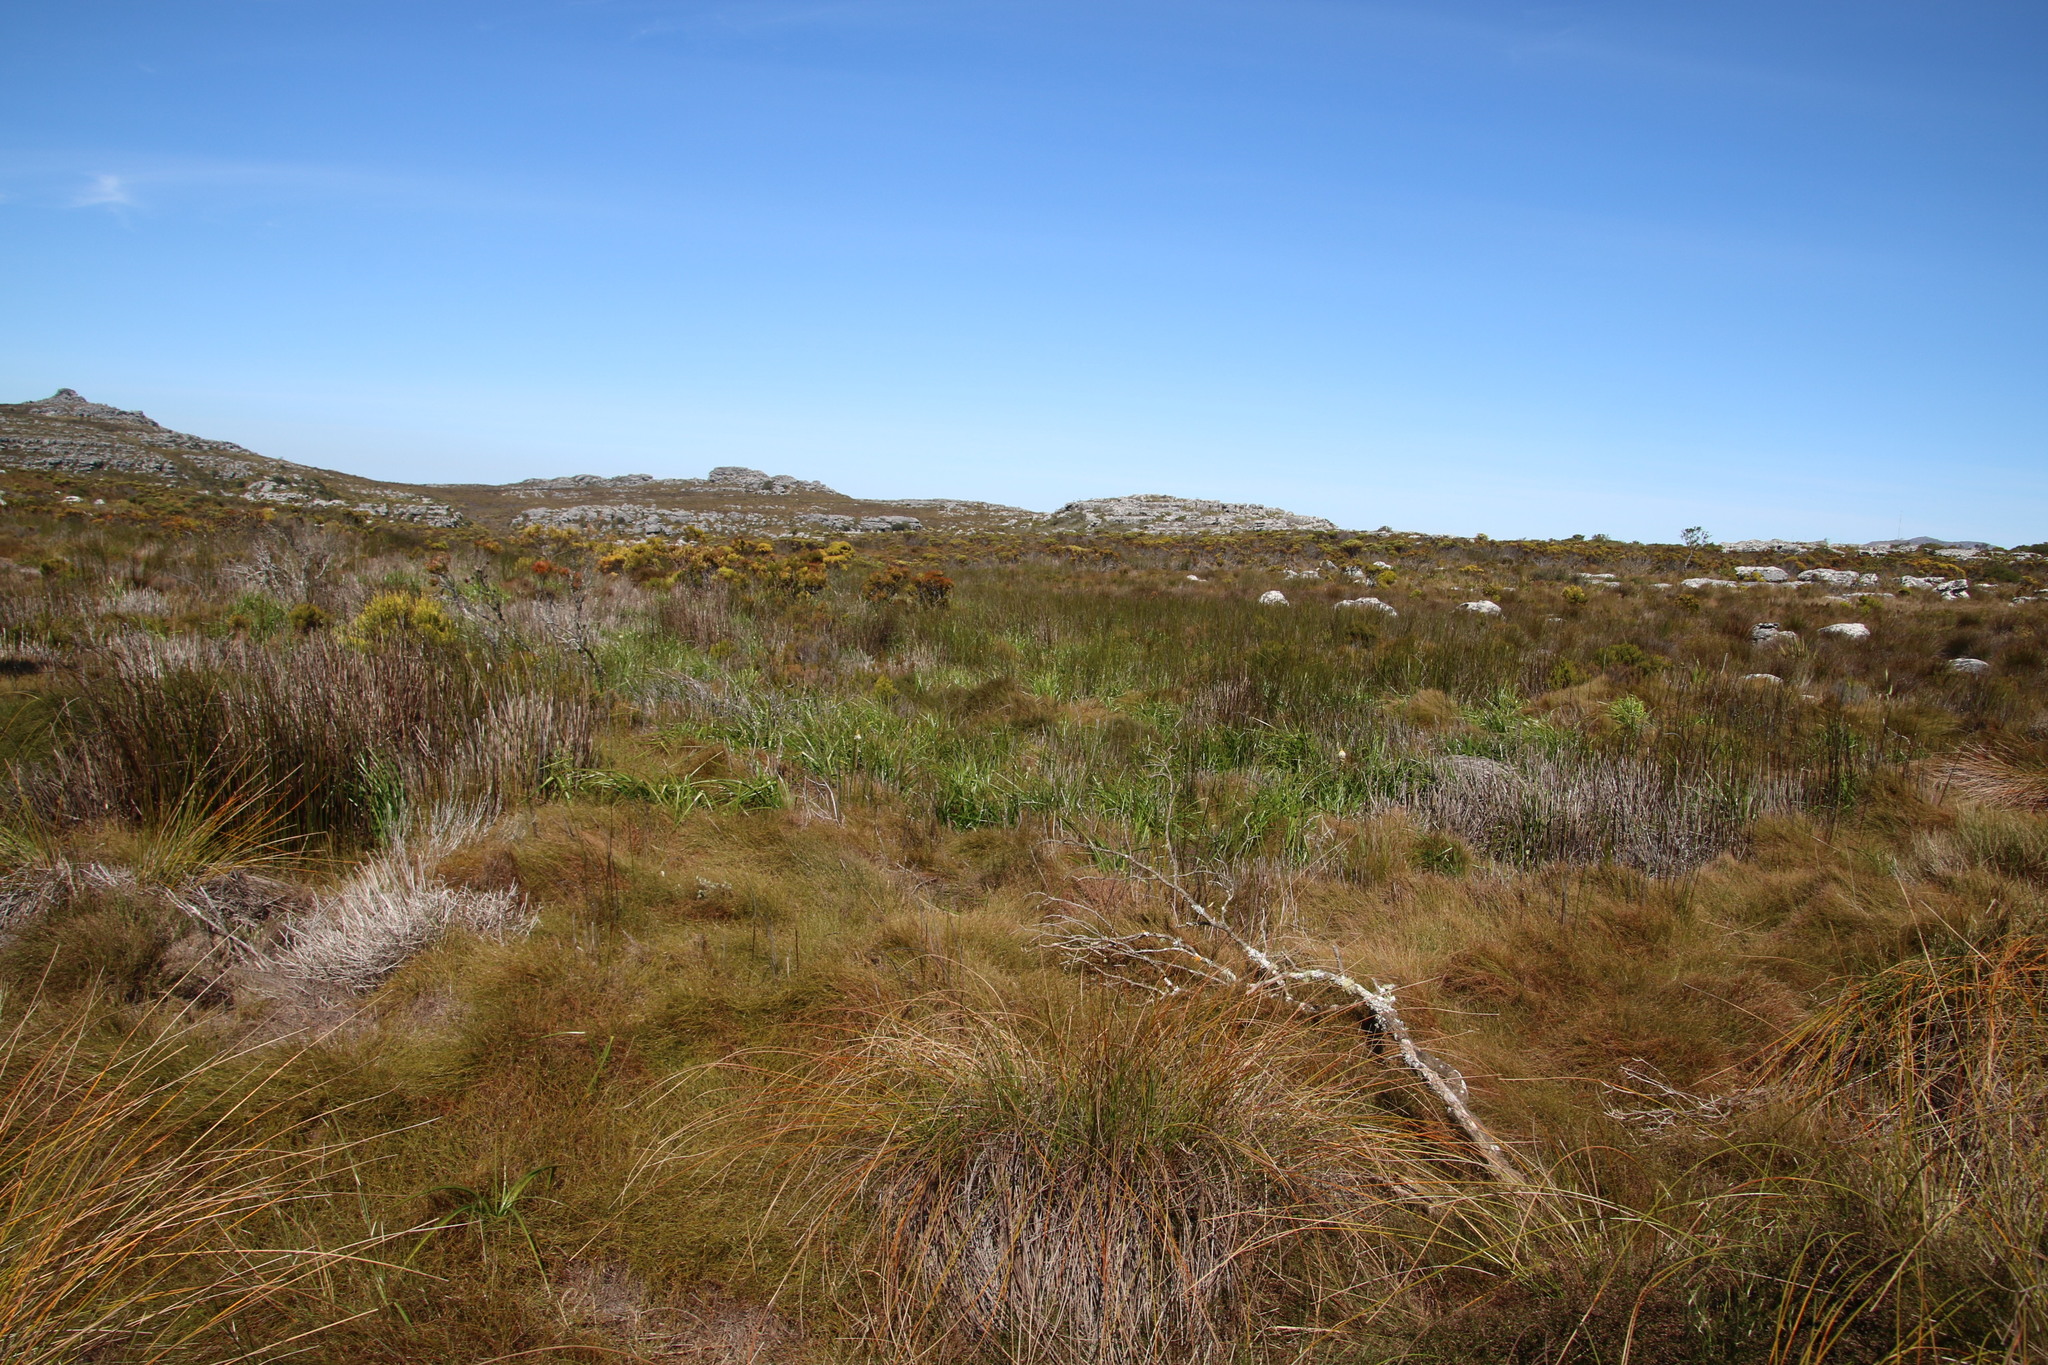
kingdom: Plantae
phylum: Tracheophyta
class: Liliopsida
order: Asparagales
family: Asphodelaceae
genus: Bulbinella
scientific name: Bulbinella nutans
